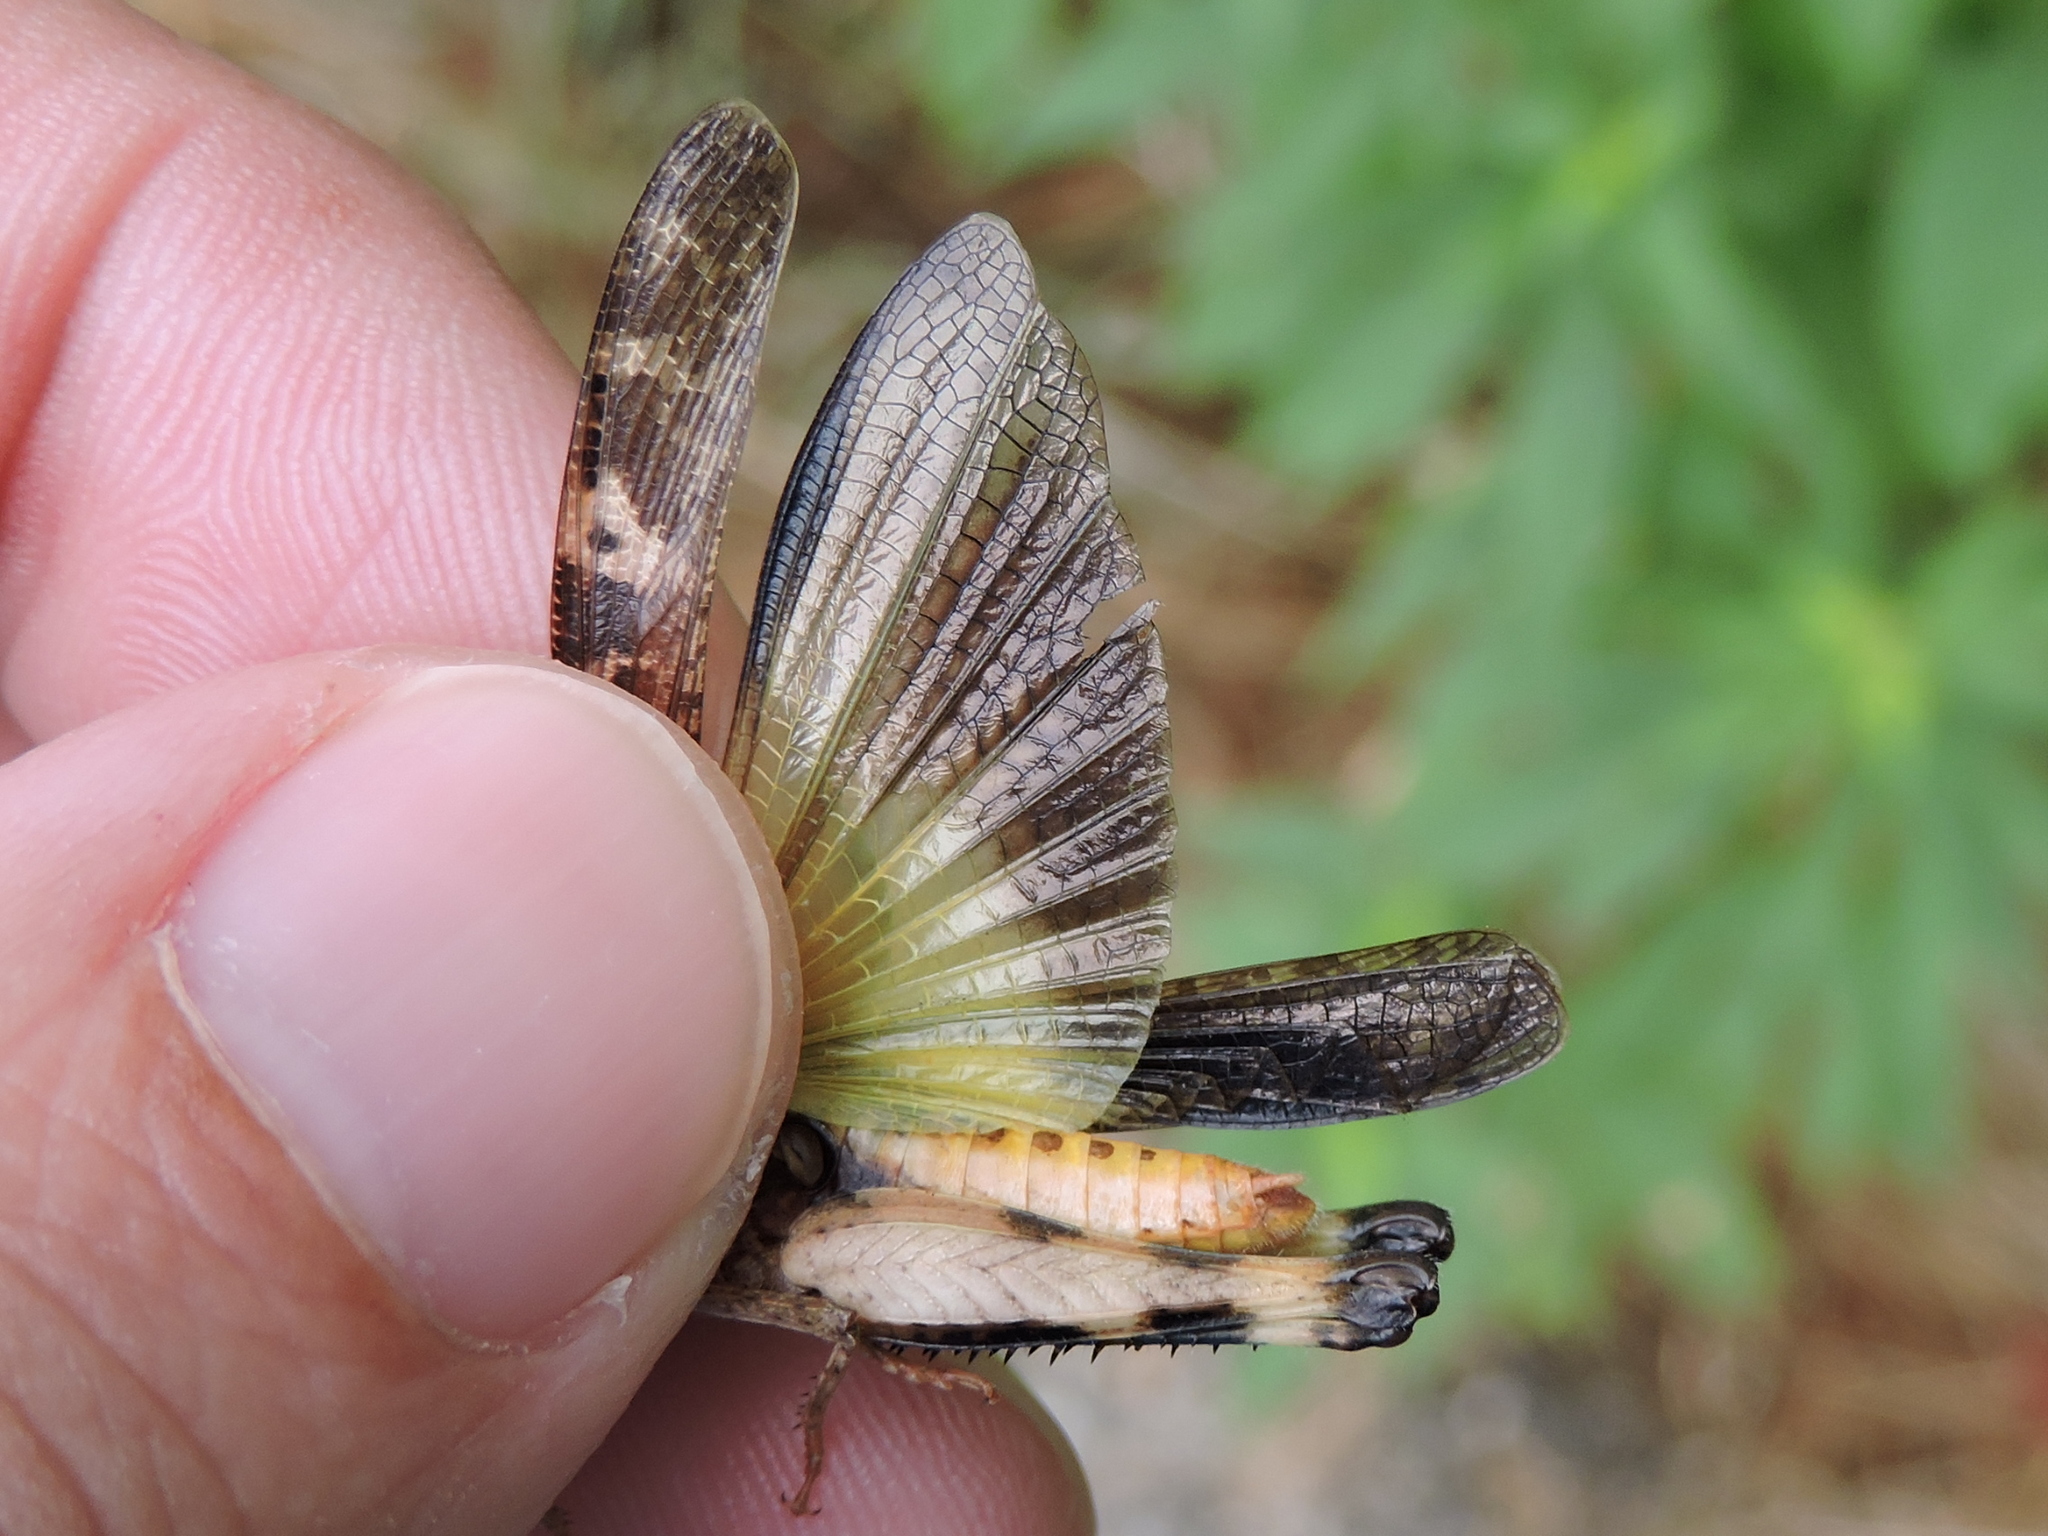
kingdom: Animalia
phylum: Arthropoda
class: Insecta
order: Orthoptera
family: Acrididae
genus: Chortophaga
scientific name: Chortophaga viridifasciata
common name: Green-striped grasshopper
